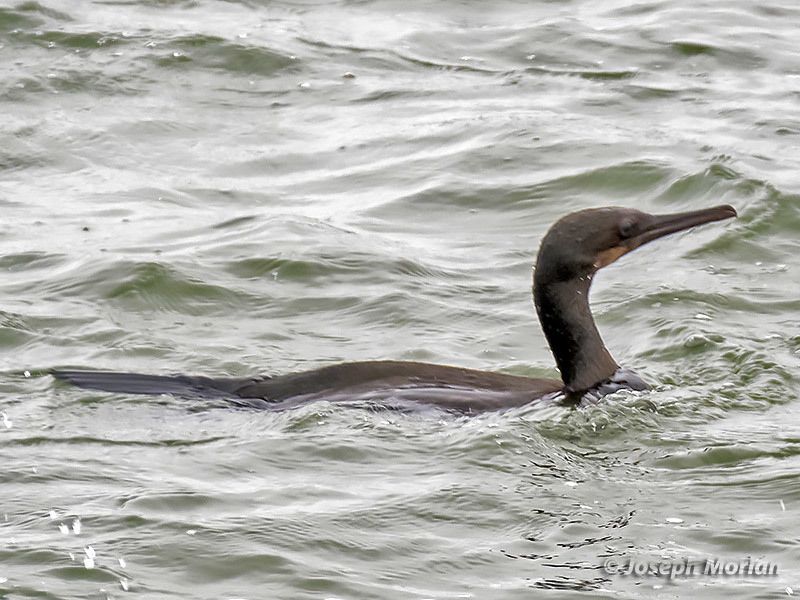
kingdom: Animalia
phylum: Chordata
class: Aves
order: Suliformes
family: Phalacrocoracidae
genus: Urile
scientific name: Urile penicillatus
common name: Brandt's cormorant
